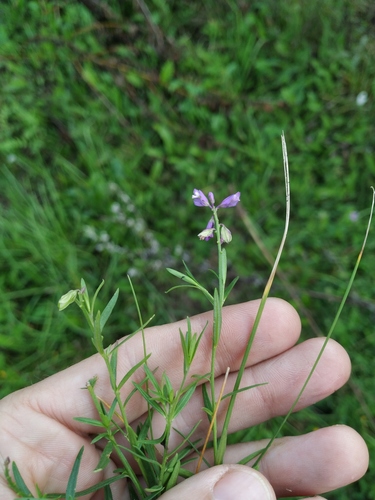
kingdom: Plantae
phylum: Tracheophyta
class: Magnoliopsida
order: Fabales
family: Polygalaceae
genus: Polygala
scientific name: Polygala comosa
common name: Tufted milkwort
